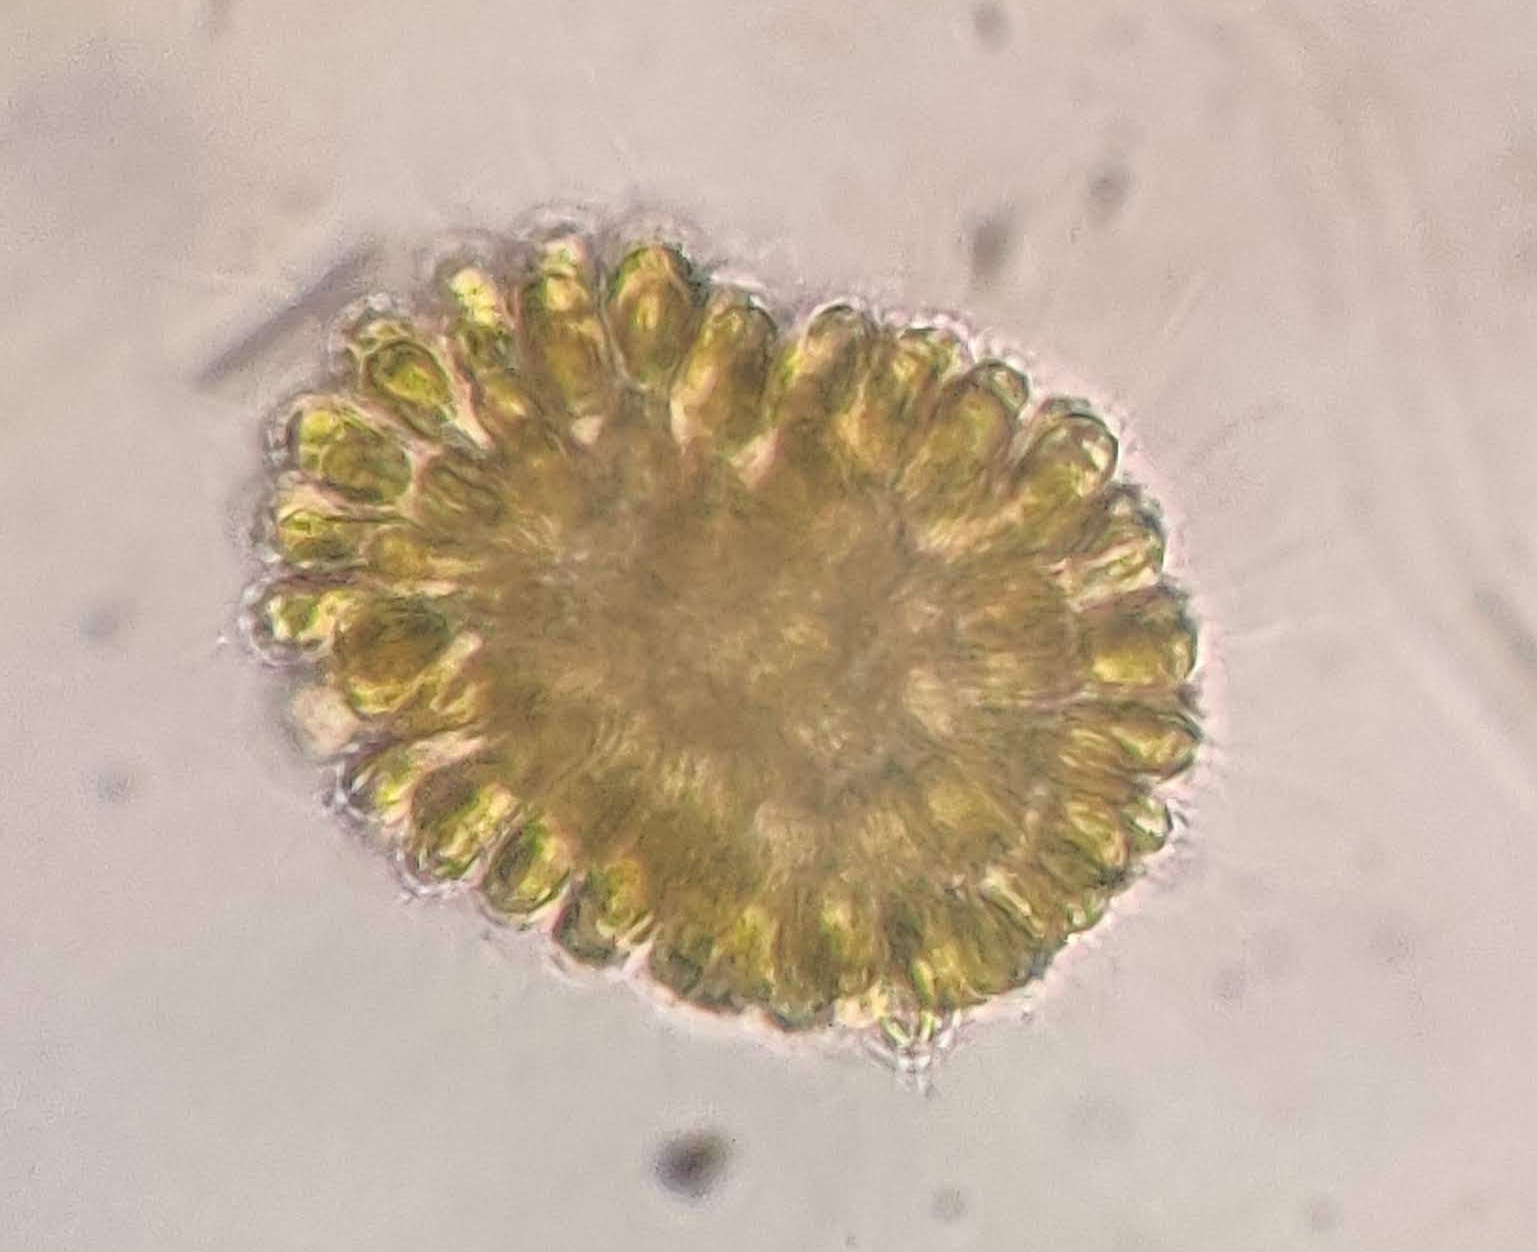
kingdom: Chromista
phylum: Ochrophyta
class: Synurophyceae
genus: Synura
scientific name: Synura
